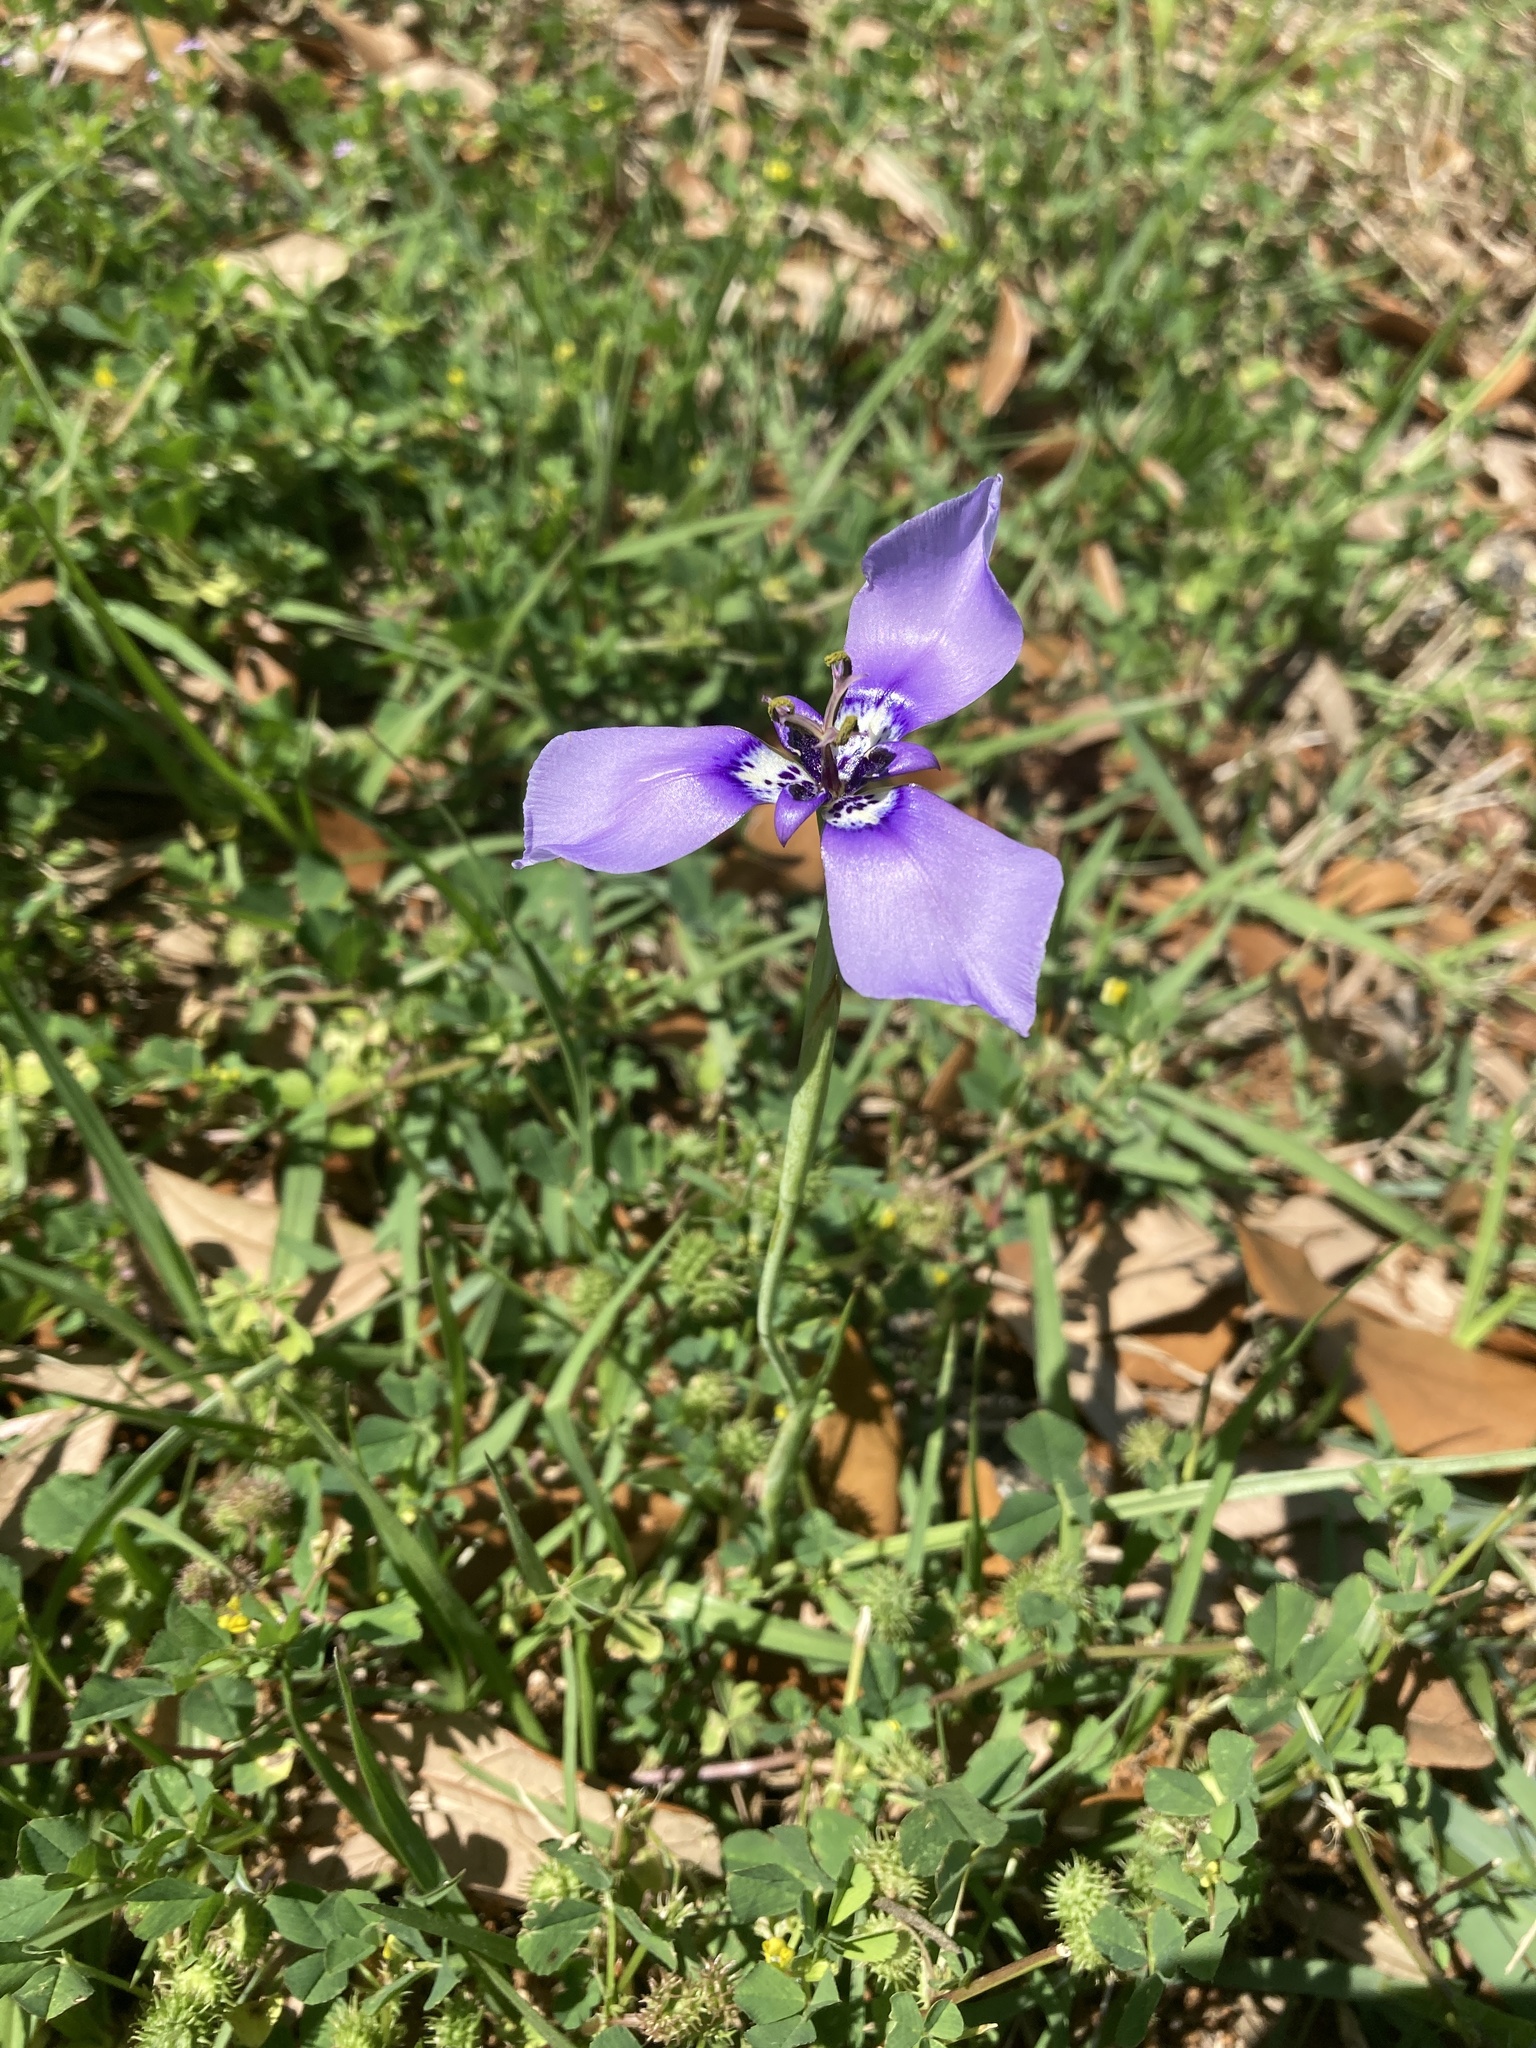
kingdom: Plantae
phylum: Tracheophyta
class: Liliopsida
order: Asparagales
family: Iridaceae
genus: Herbertia
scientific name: Herbertia lahue
